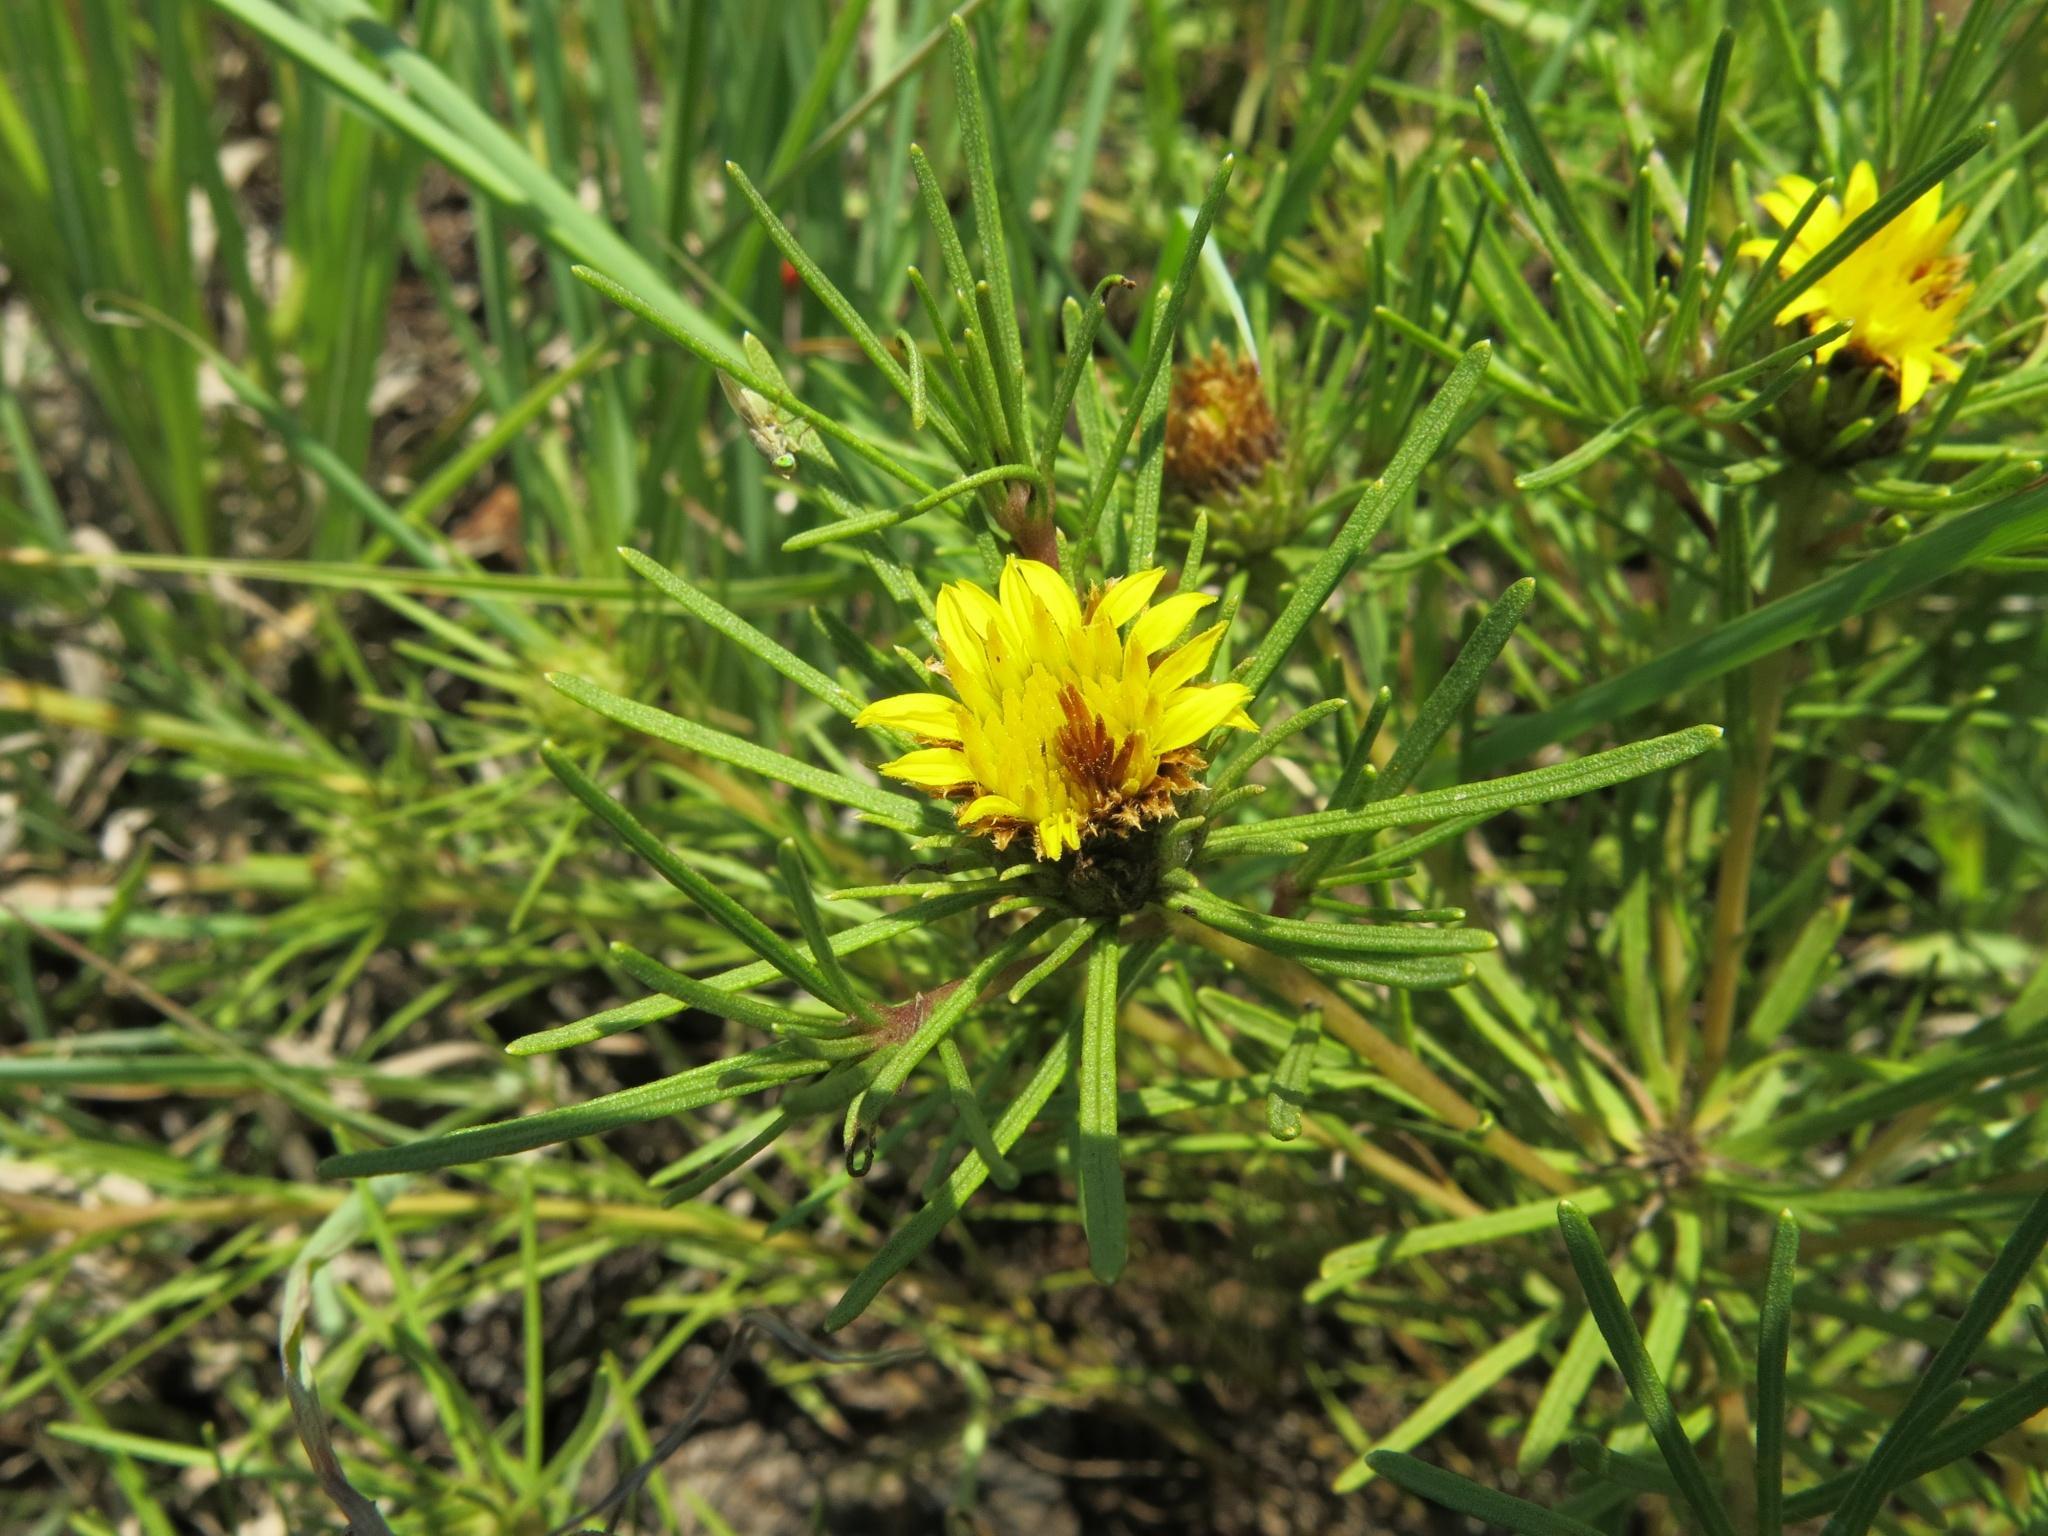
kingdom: Plantae
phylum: Tracheophyta
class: Magnoliopsida
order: Asterales
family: Asteraceae
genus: Geigeria
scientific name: Geigeria burkei
